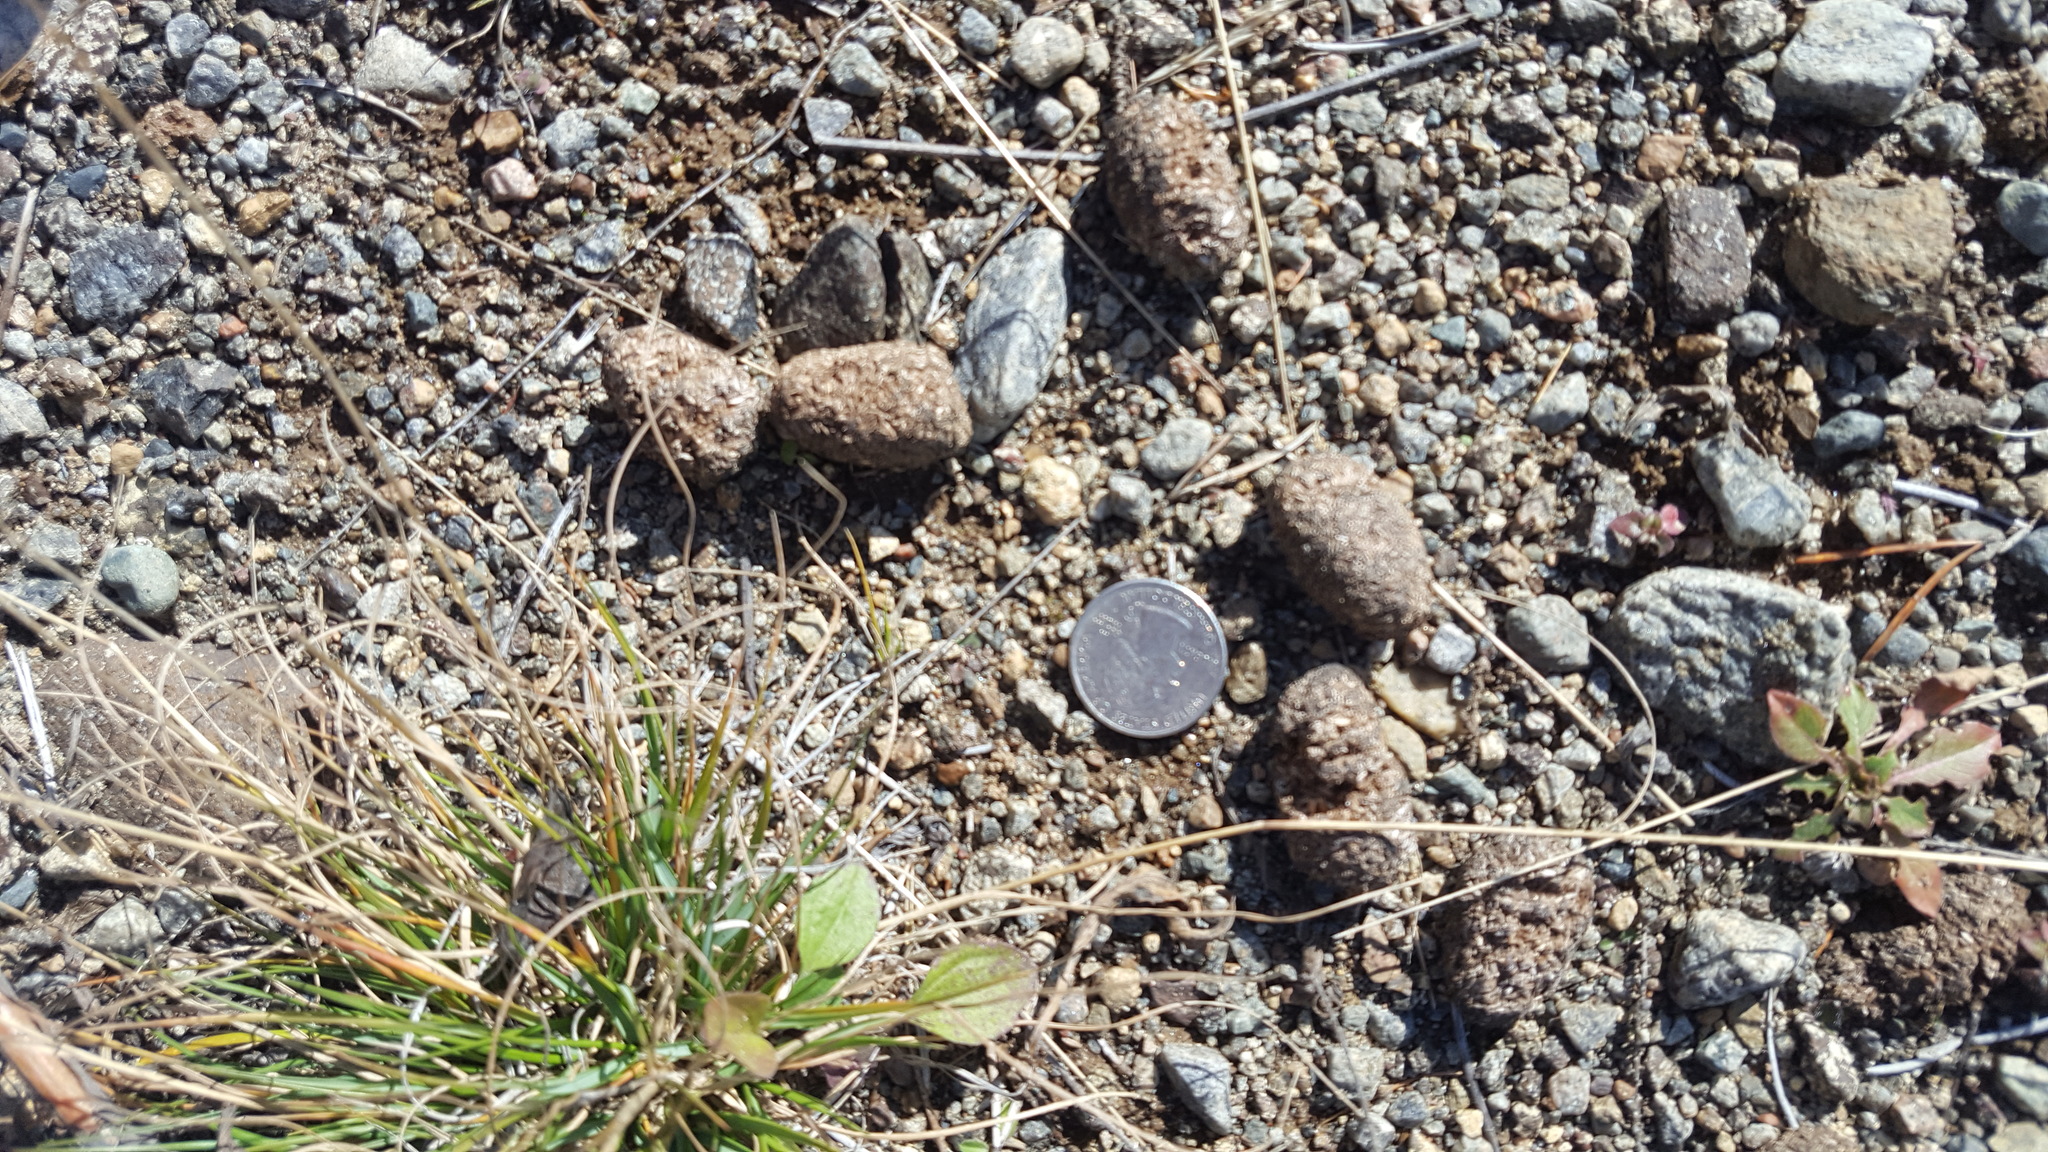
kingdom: Animalia
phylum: Chordata
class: Mammalia
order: Artiodactyla
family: Cervidae
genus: Alces
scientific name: Alces alces
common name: Moose
